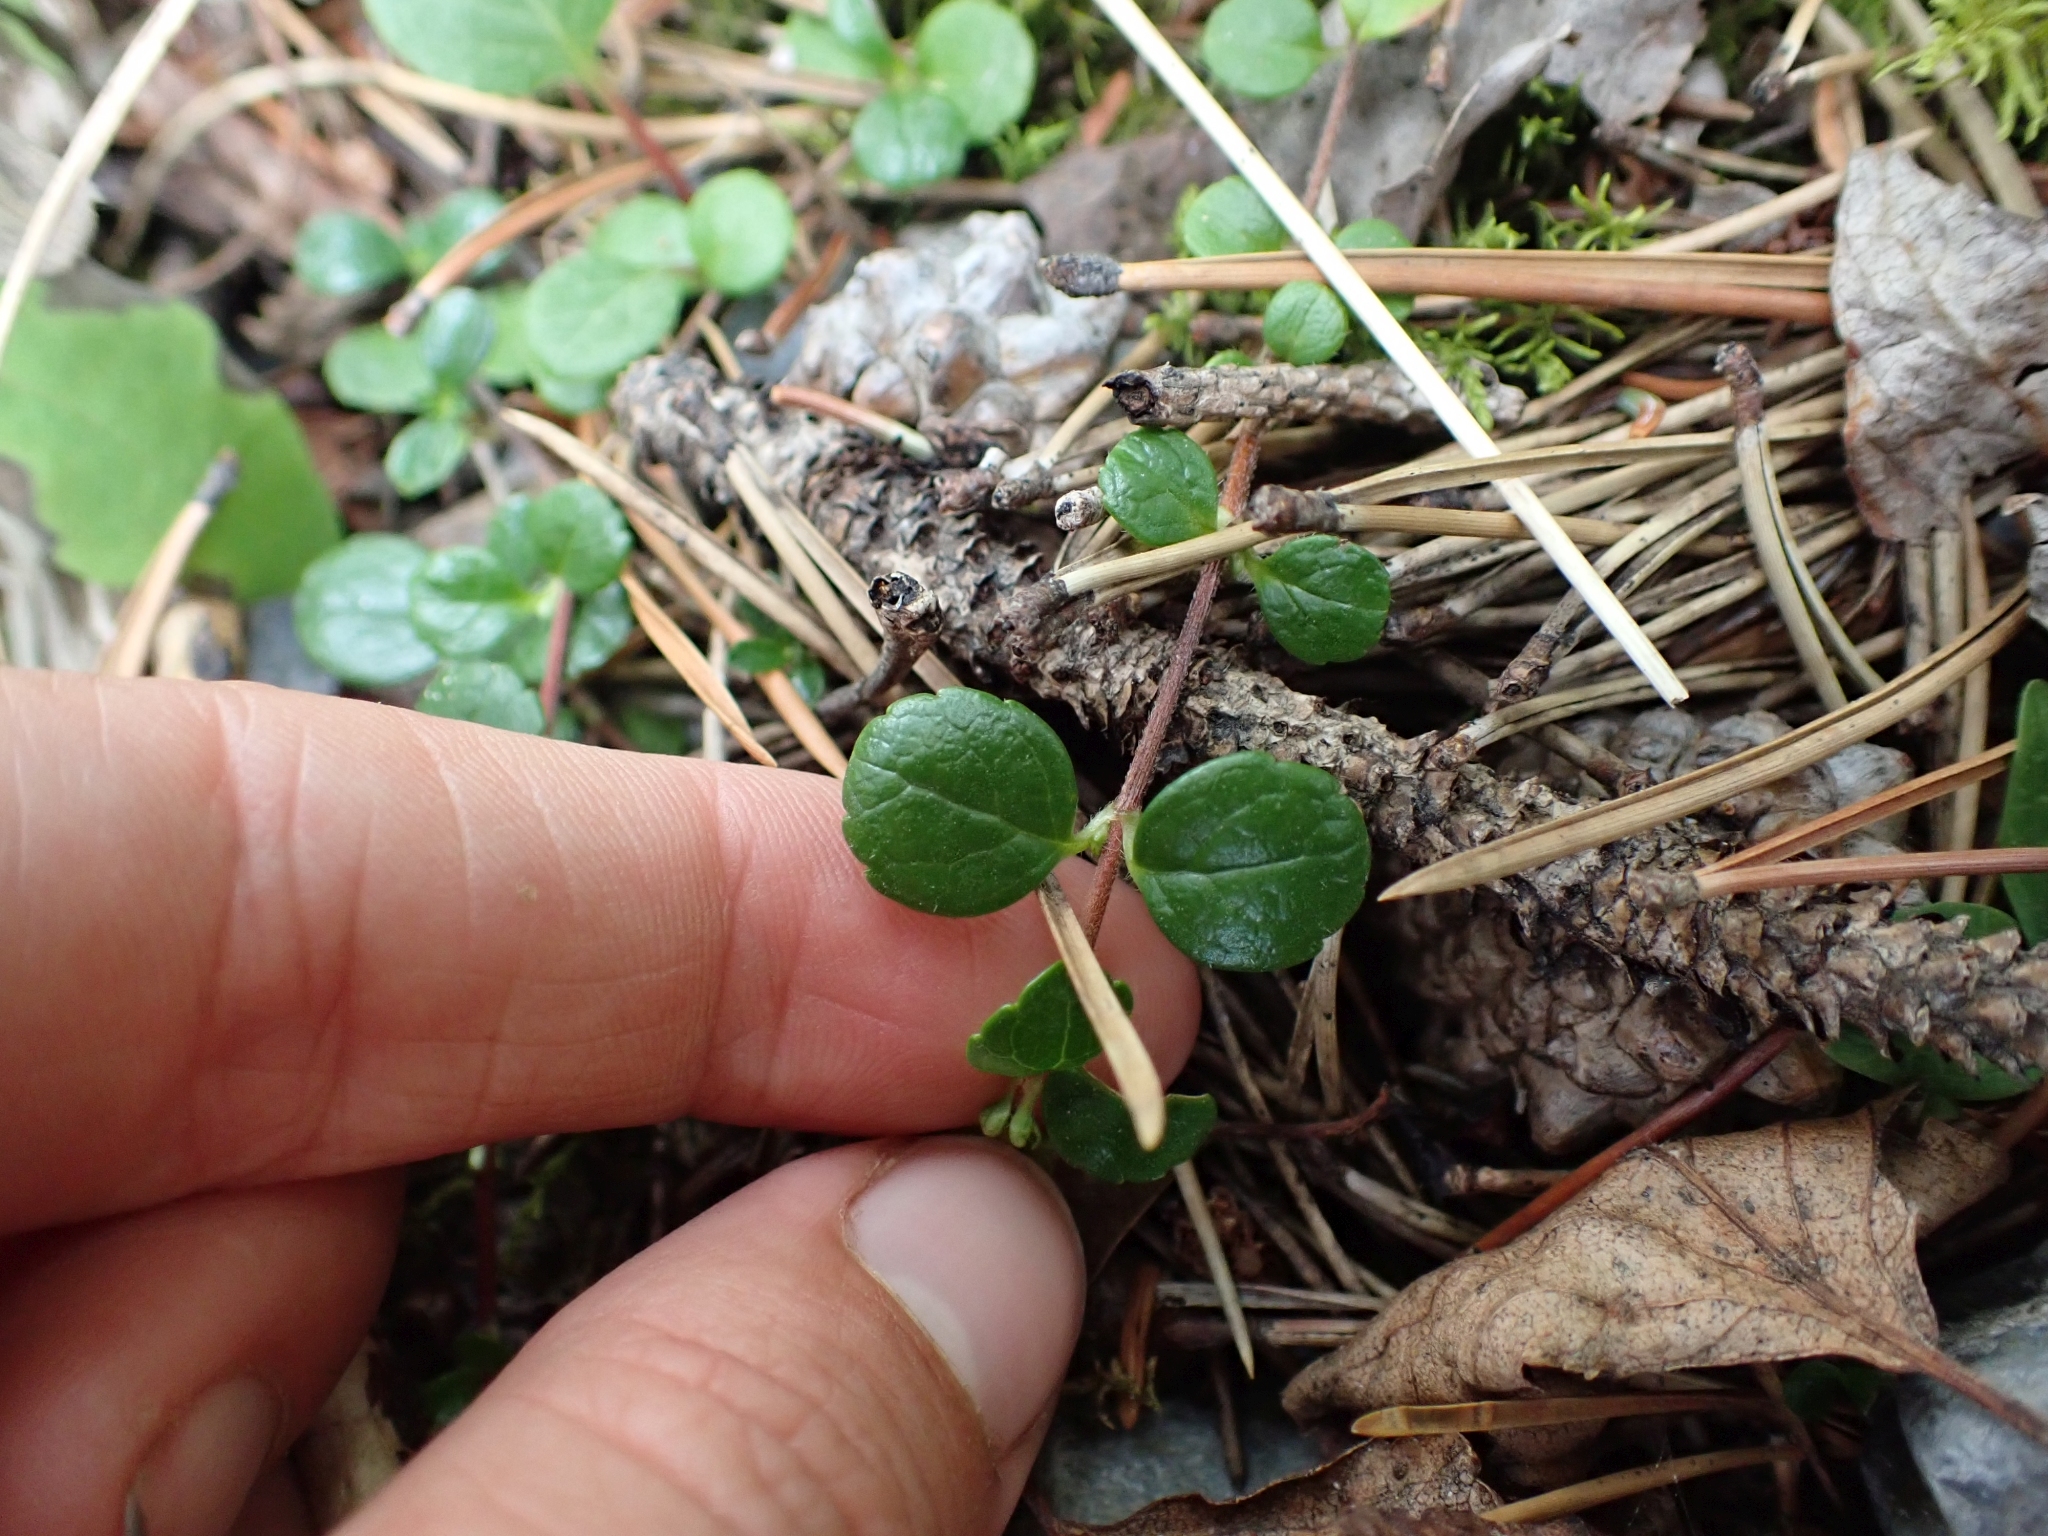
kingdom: Plantae
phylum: Tracheophyta
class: Magnoliopsida
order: Dipsacales
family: Caprifoliaceae
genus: Linnaea
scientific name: Linnaea borealis
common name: Twinflower
